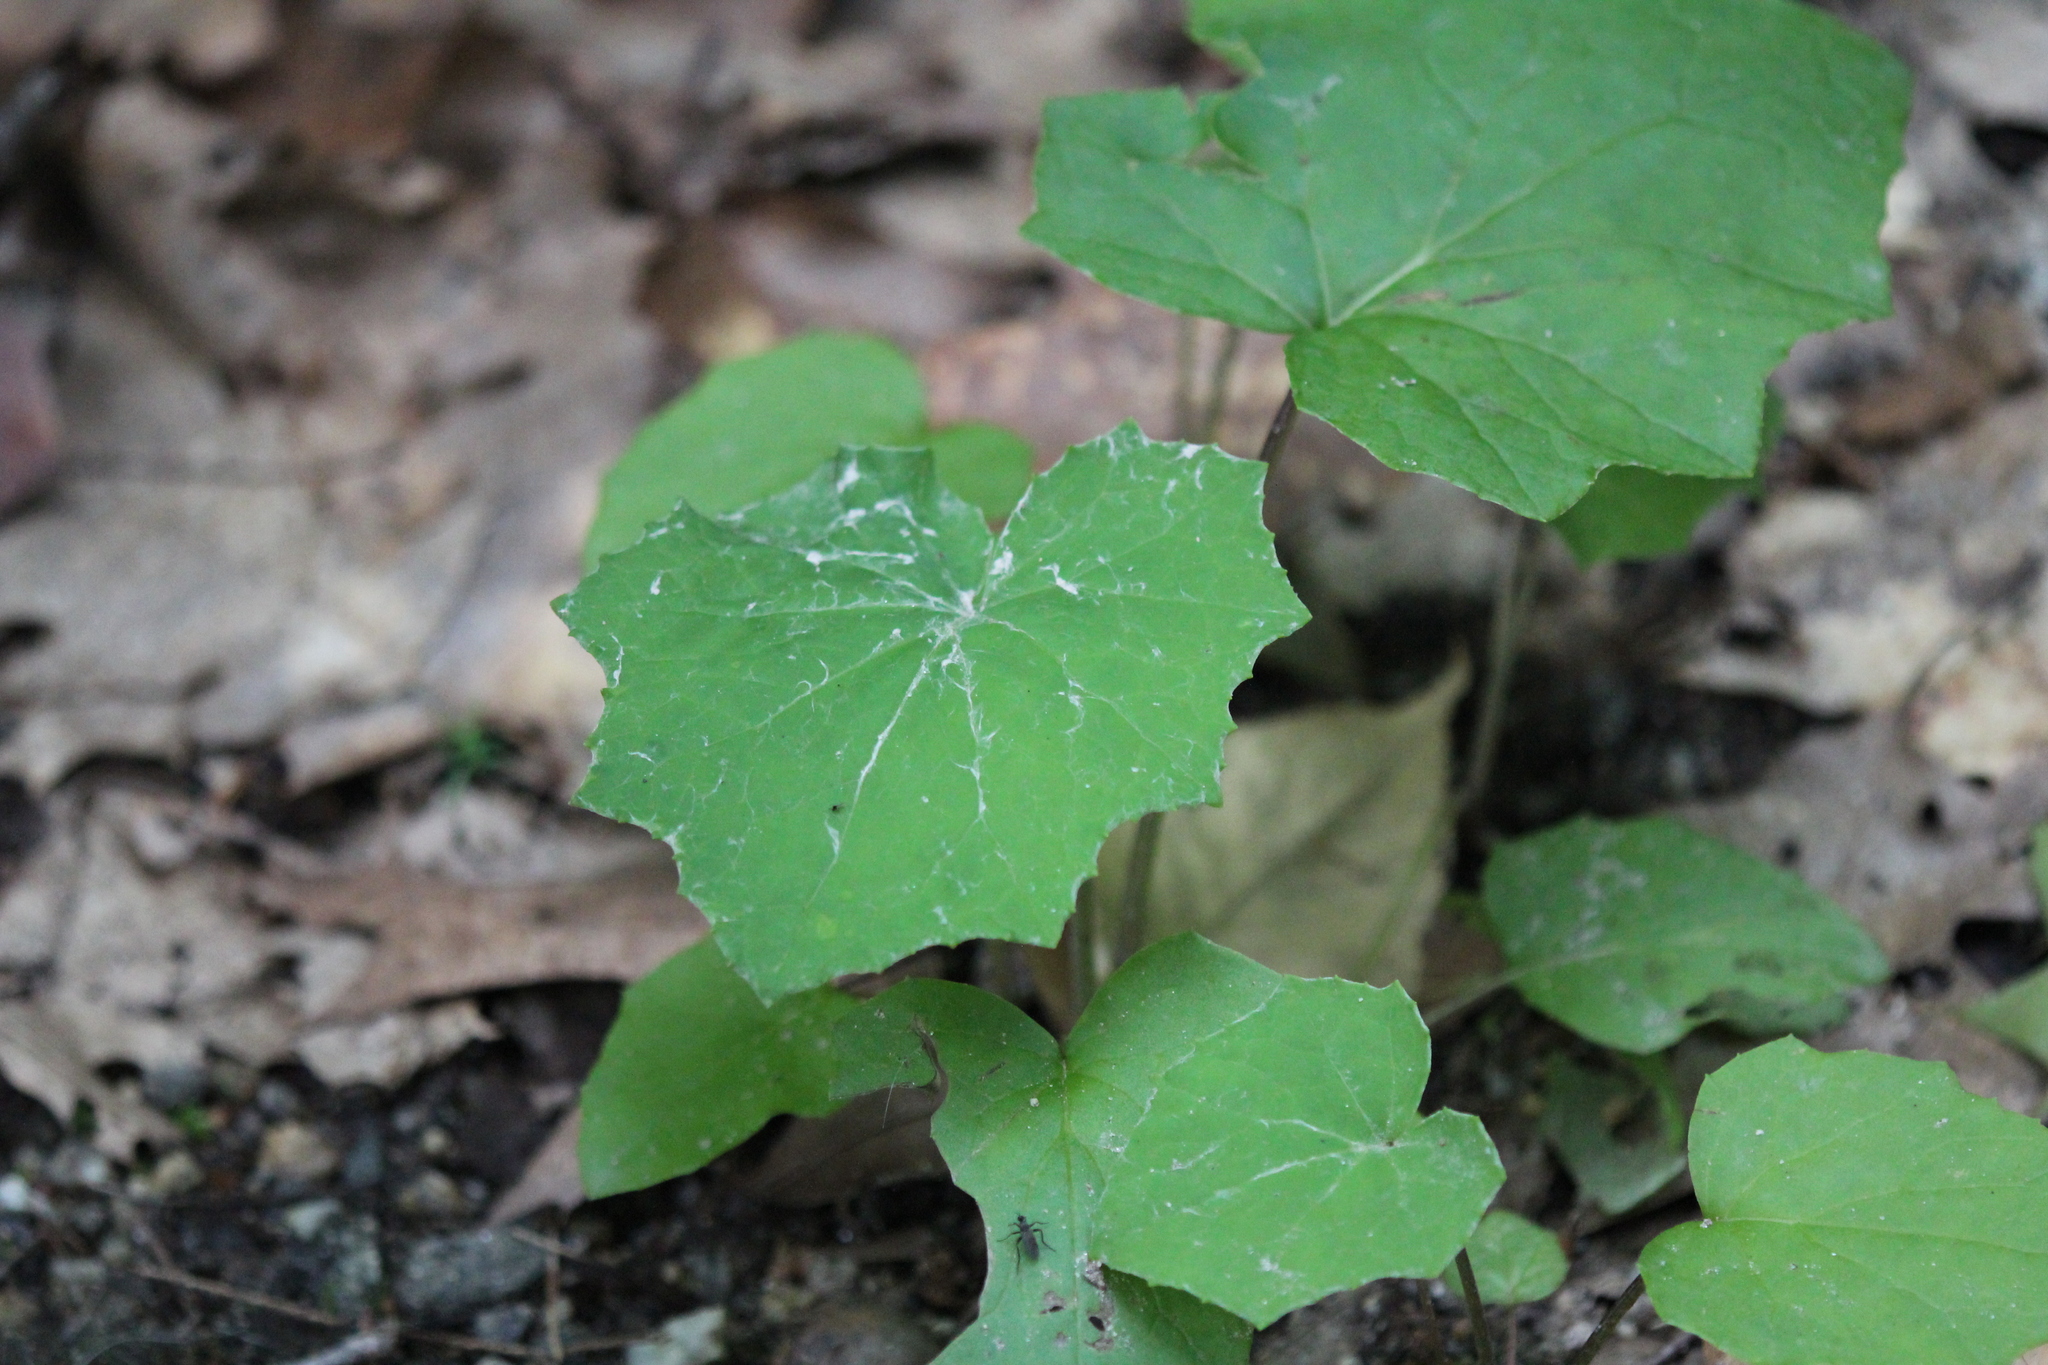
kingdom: Plantae
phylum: Tracheophyta
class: Magnoliopsida
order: Asterales
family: Asteraceae
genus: Tussilago
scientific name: Tussilago farfara
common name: Coltsfoot
